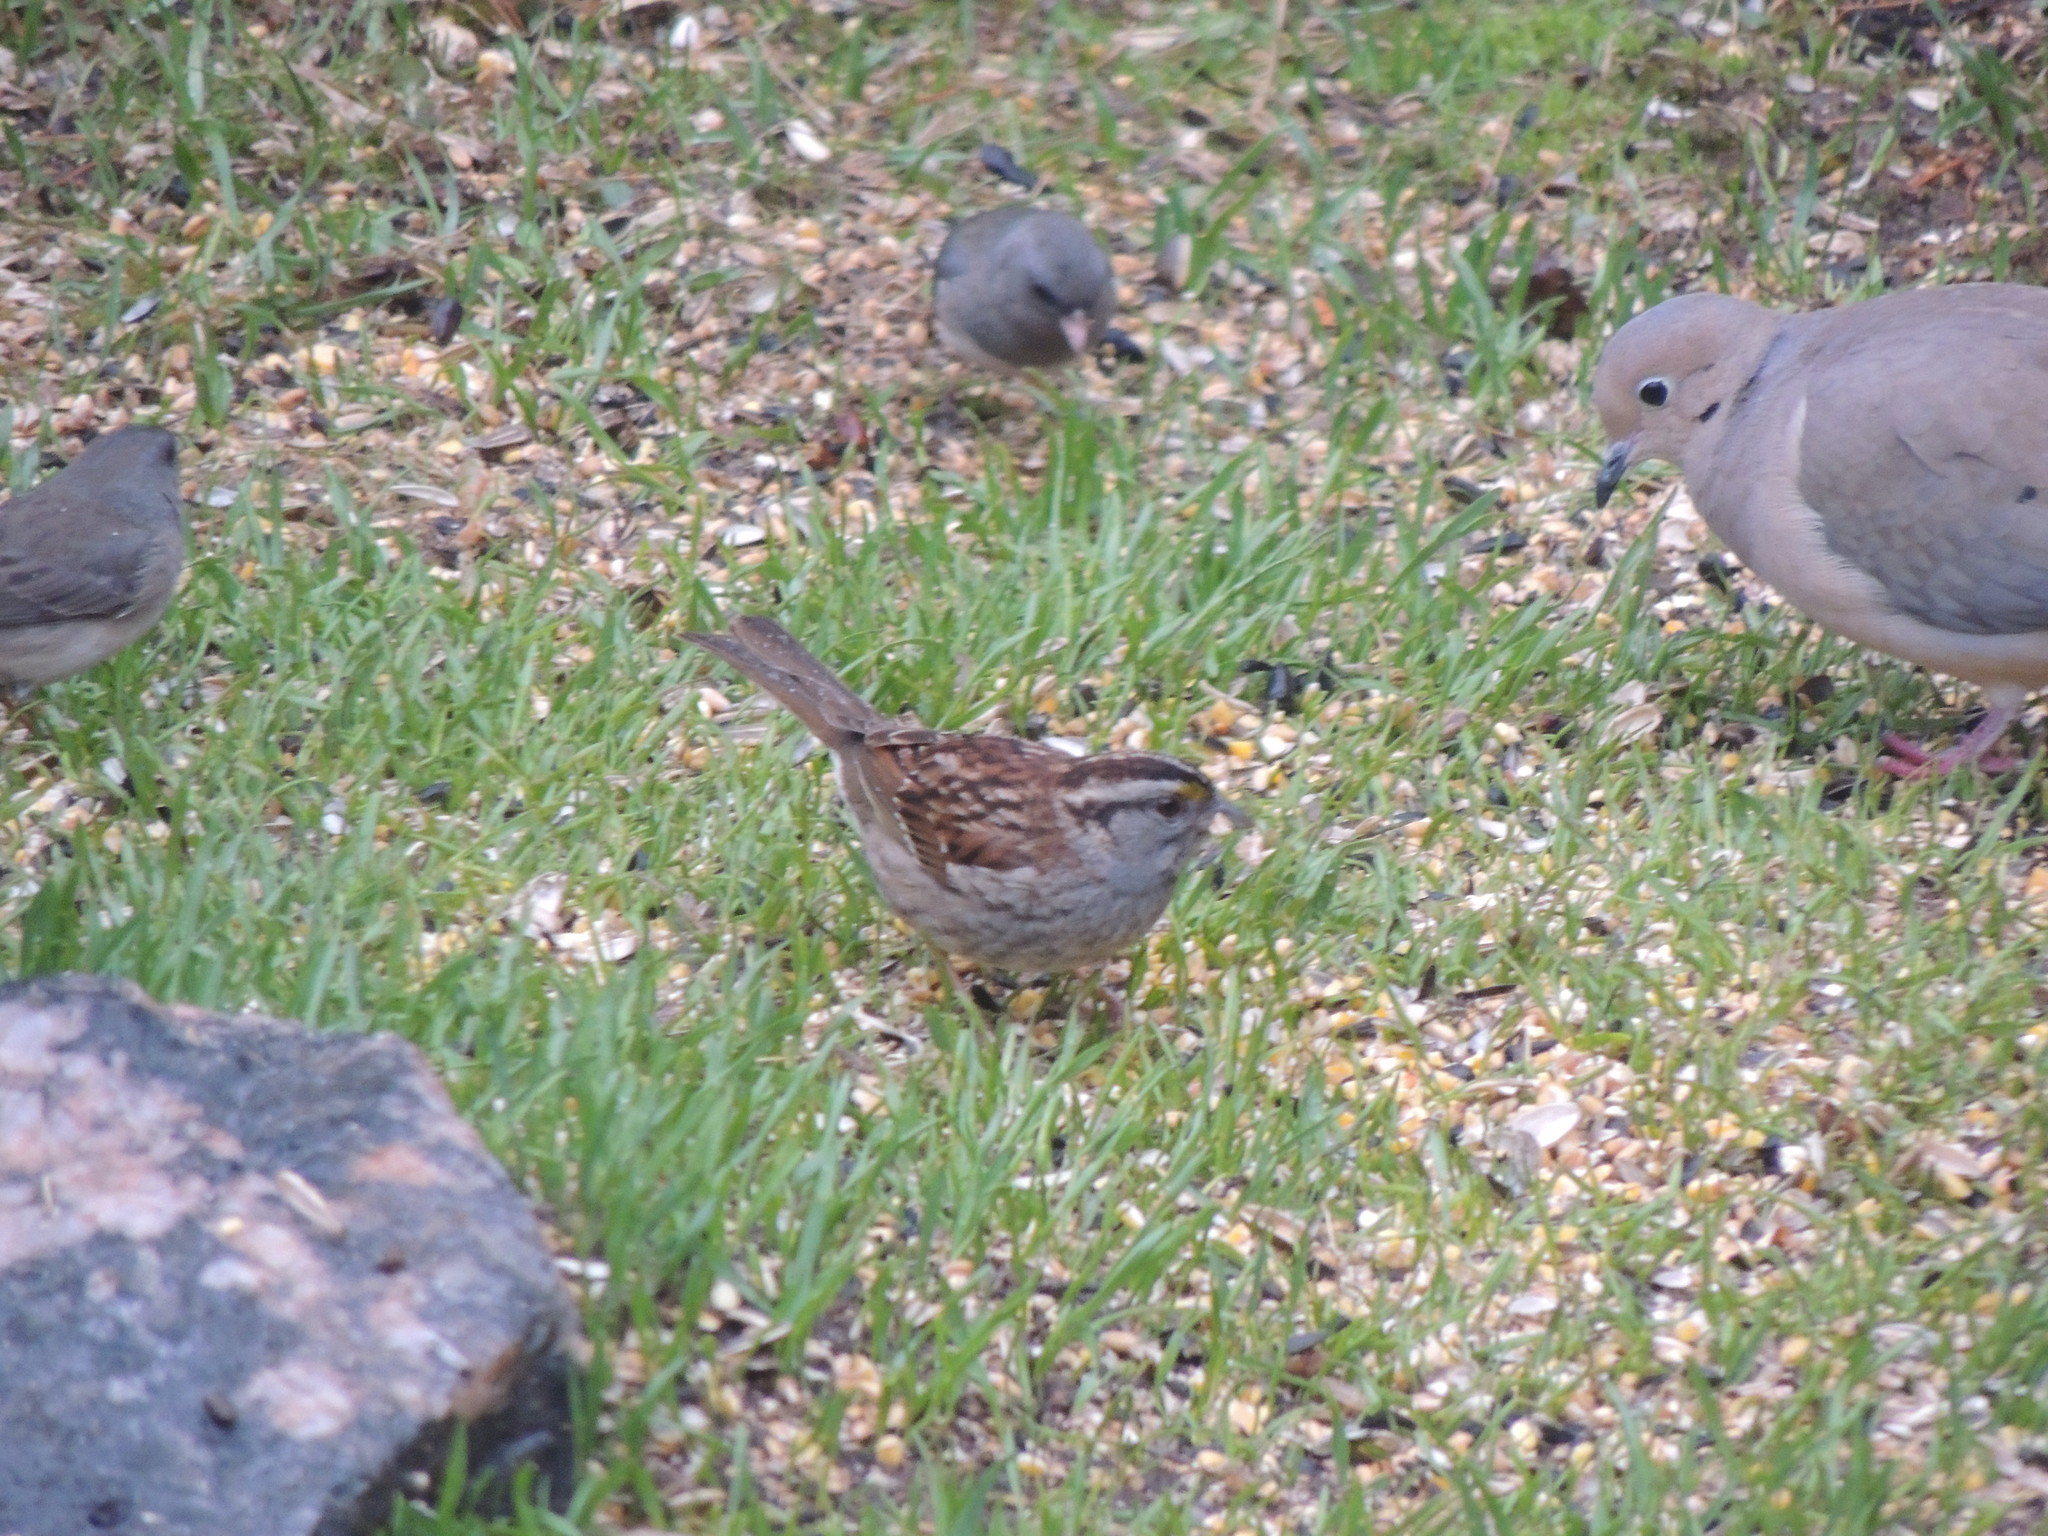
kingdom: Animalia
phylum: Chordata
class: Aves
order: Passeriformes
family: Passerellidae
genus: Zonotrichia
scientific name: Zonotrichia albicollis
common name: White-throated sparrow
